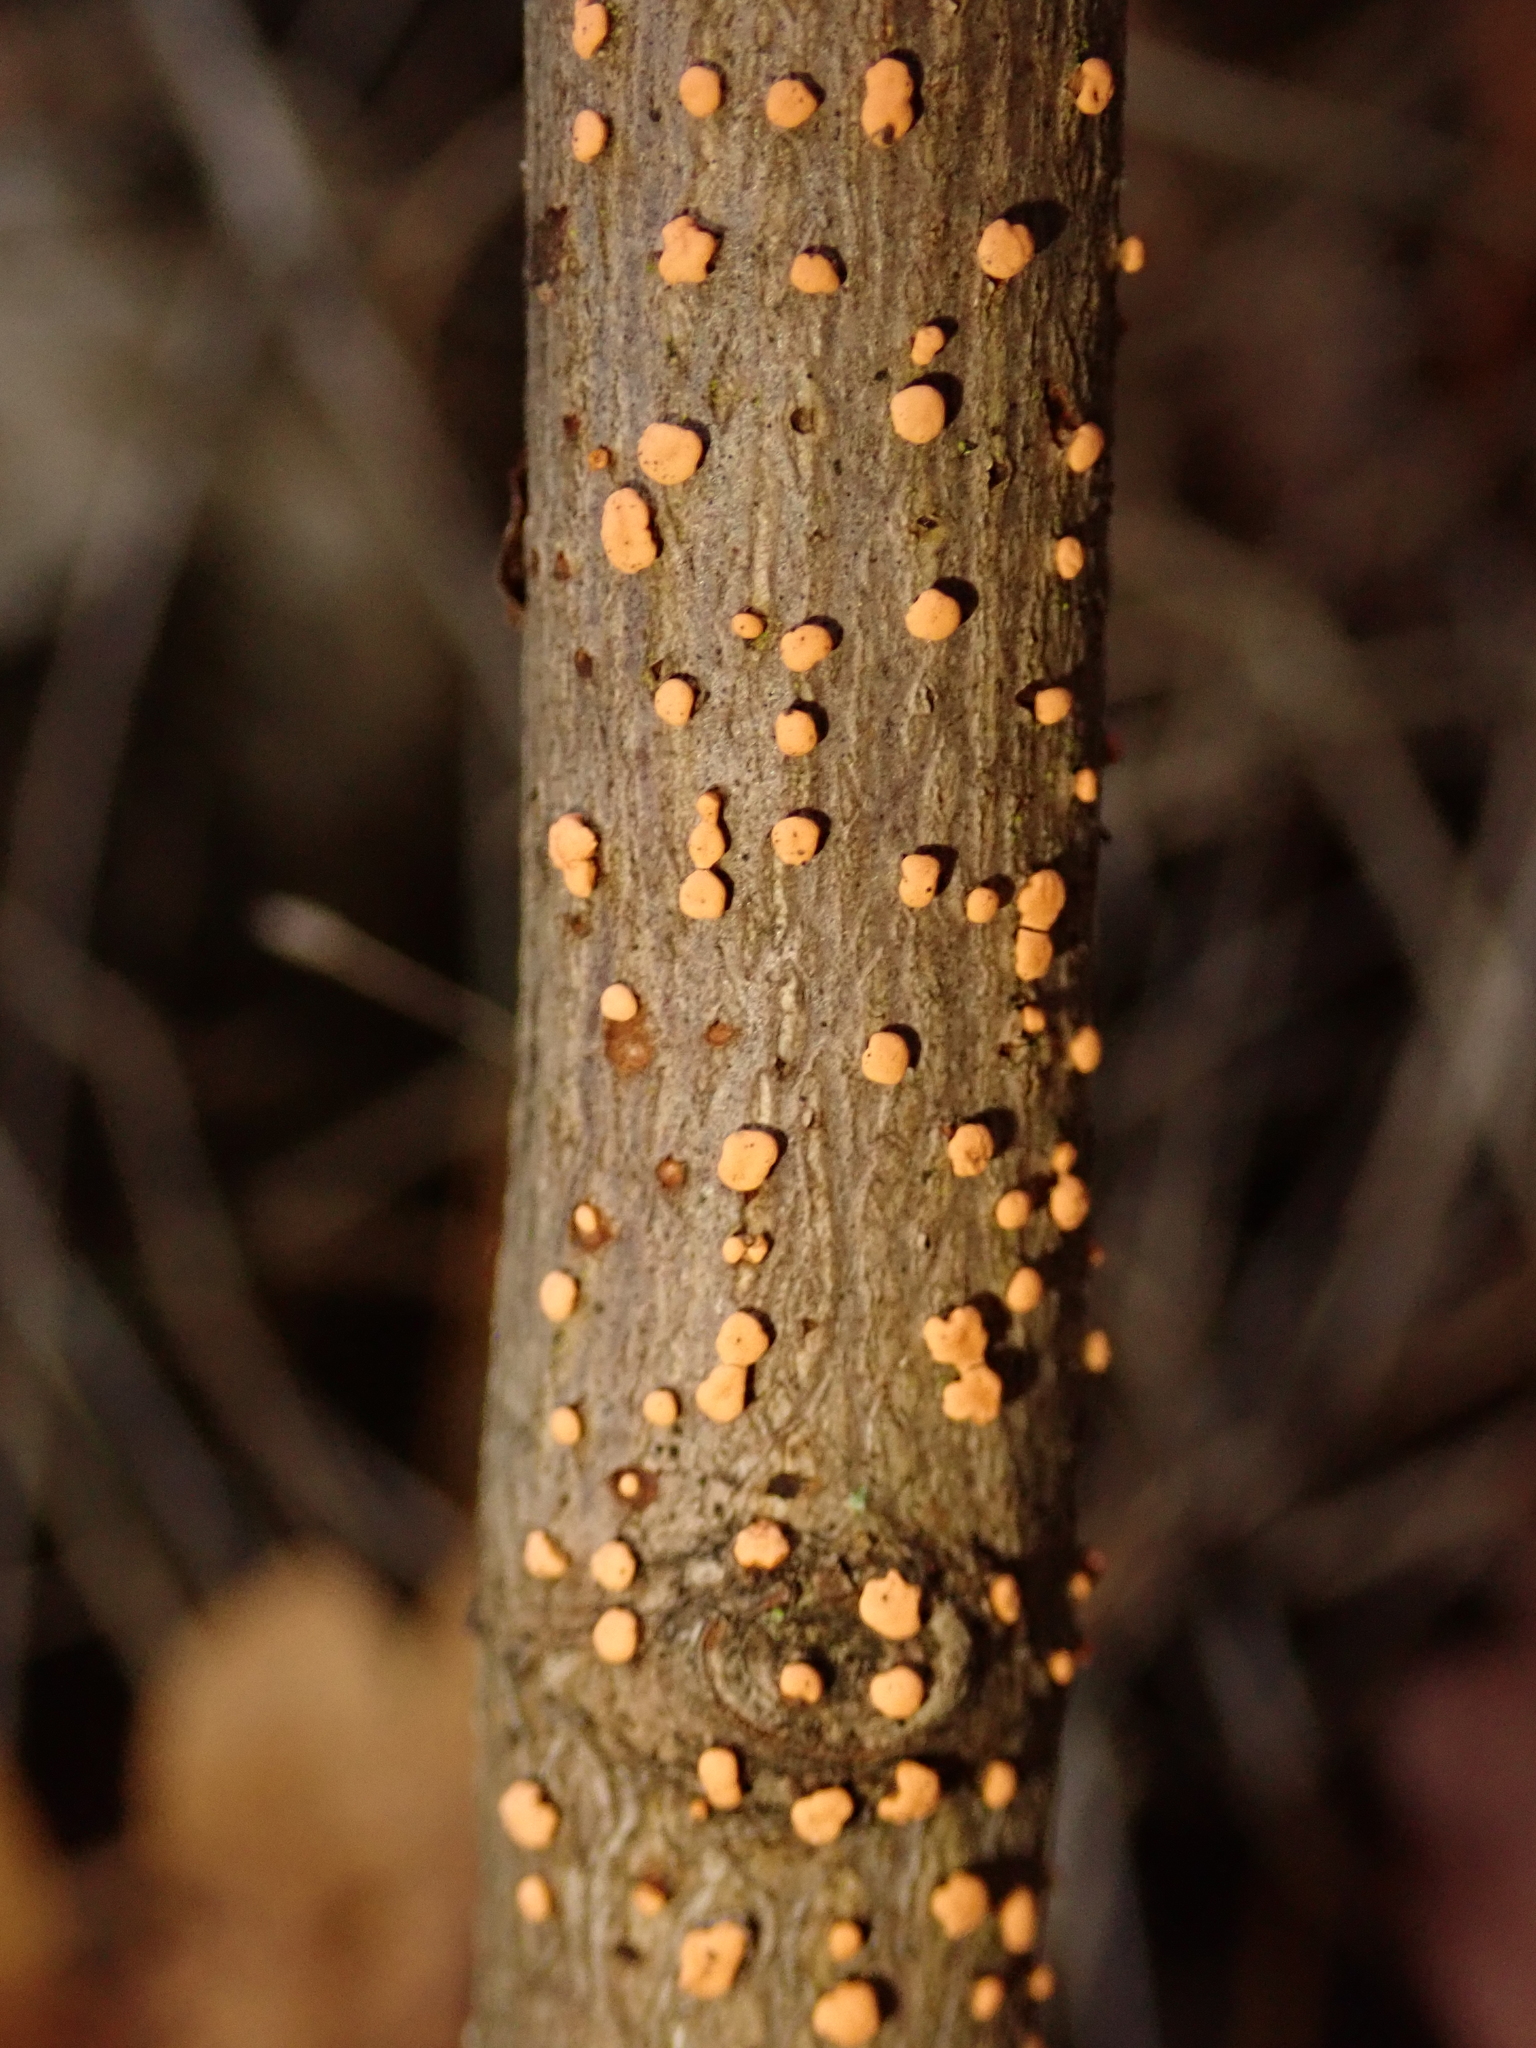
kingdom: Fungi
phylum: Ascomycota
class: Sordariomycetes
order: Hypocreales
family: Nectriaceae
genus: Nectria
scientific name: Nectria cinnabarina
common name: Coral spot
